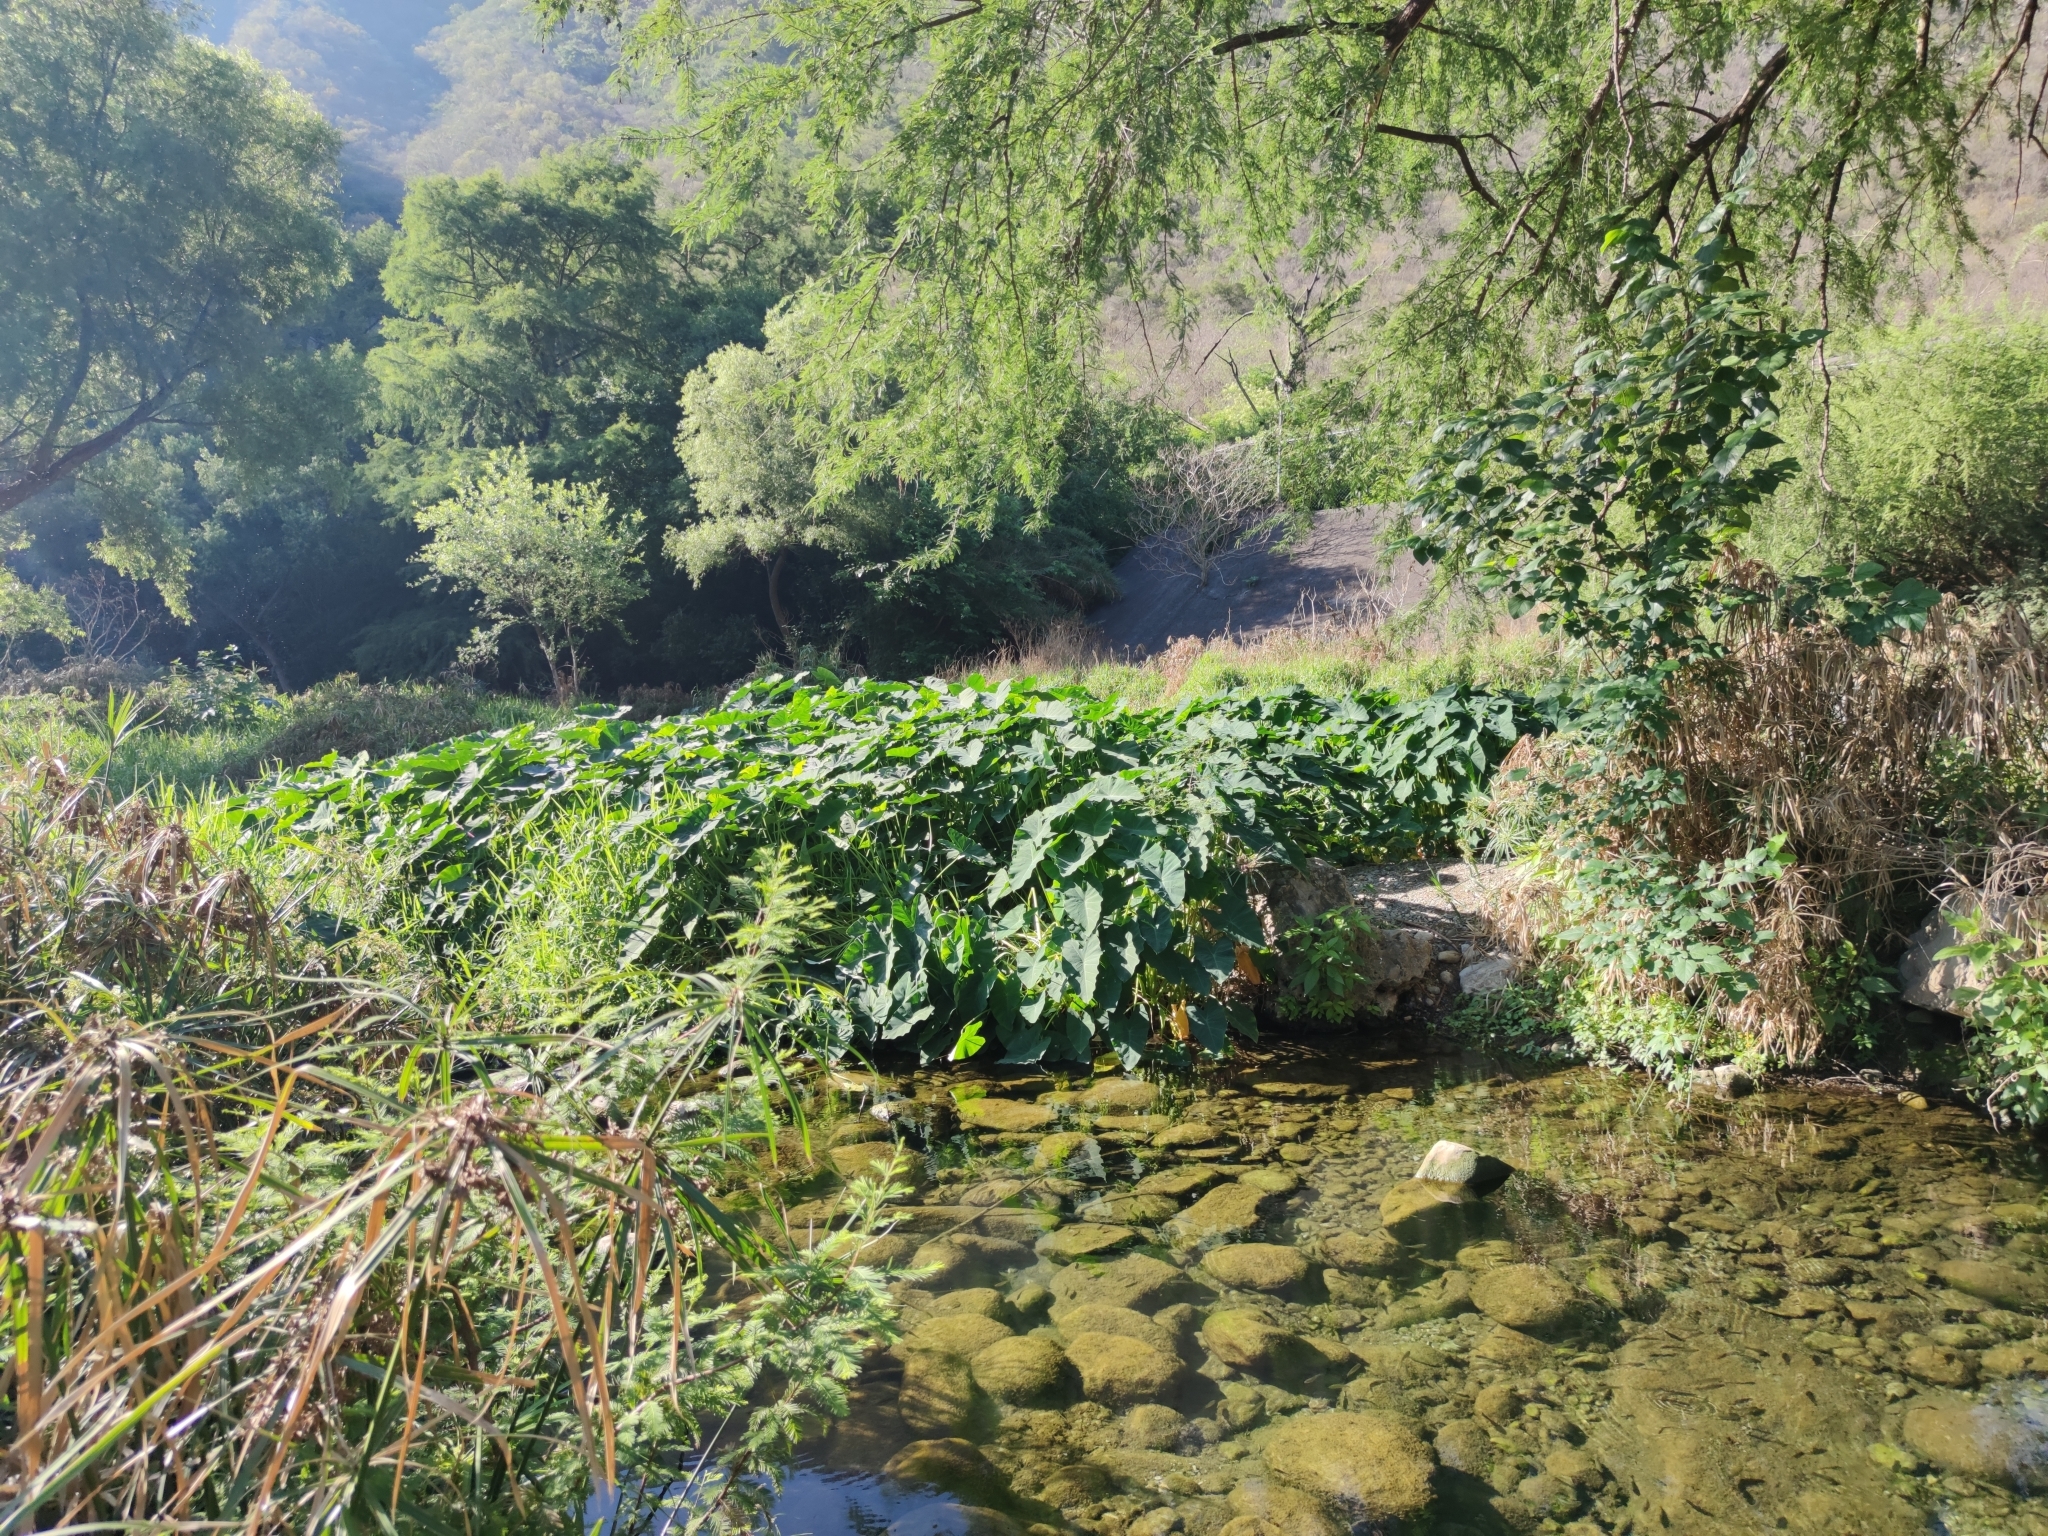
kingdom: Plantae
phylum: Tracheophyta
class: Liliopsida
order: Alismatales
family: Araceae
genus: Colocasia
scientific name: Colocasia esculenta
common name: Taro
